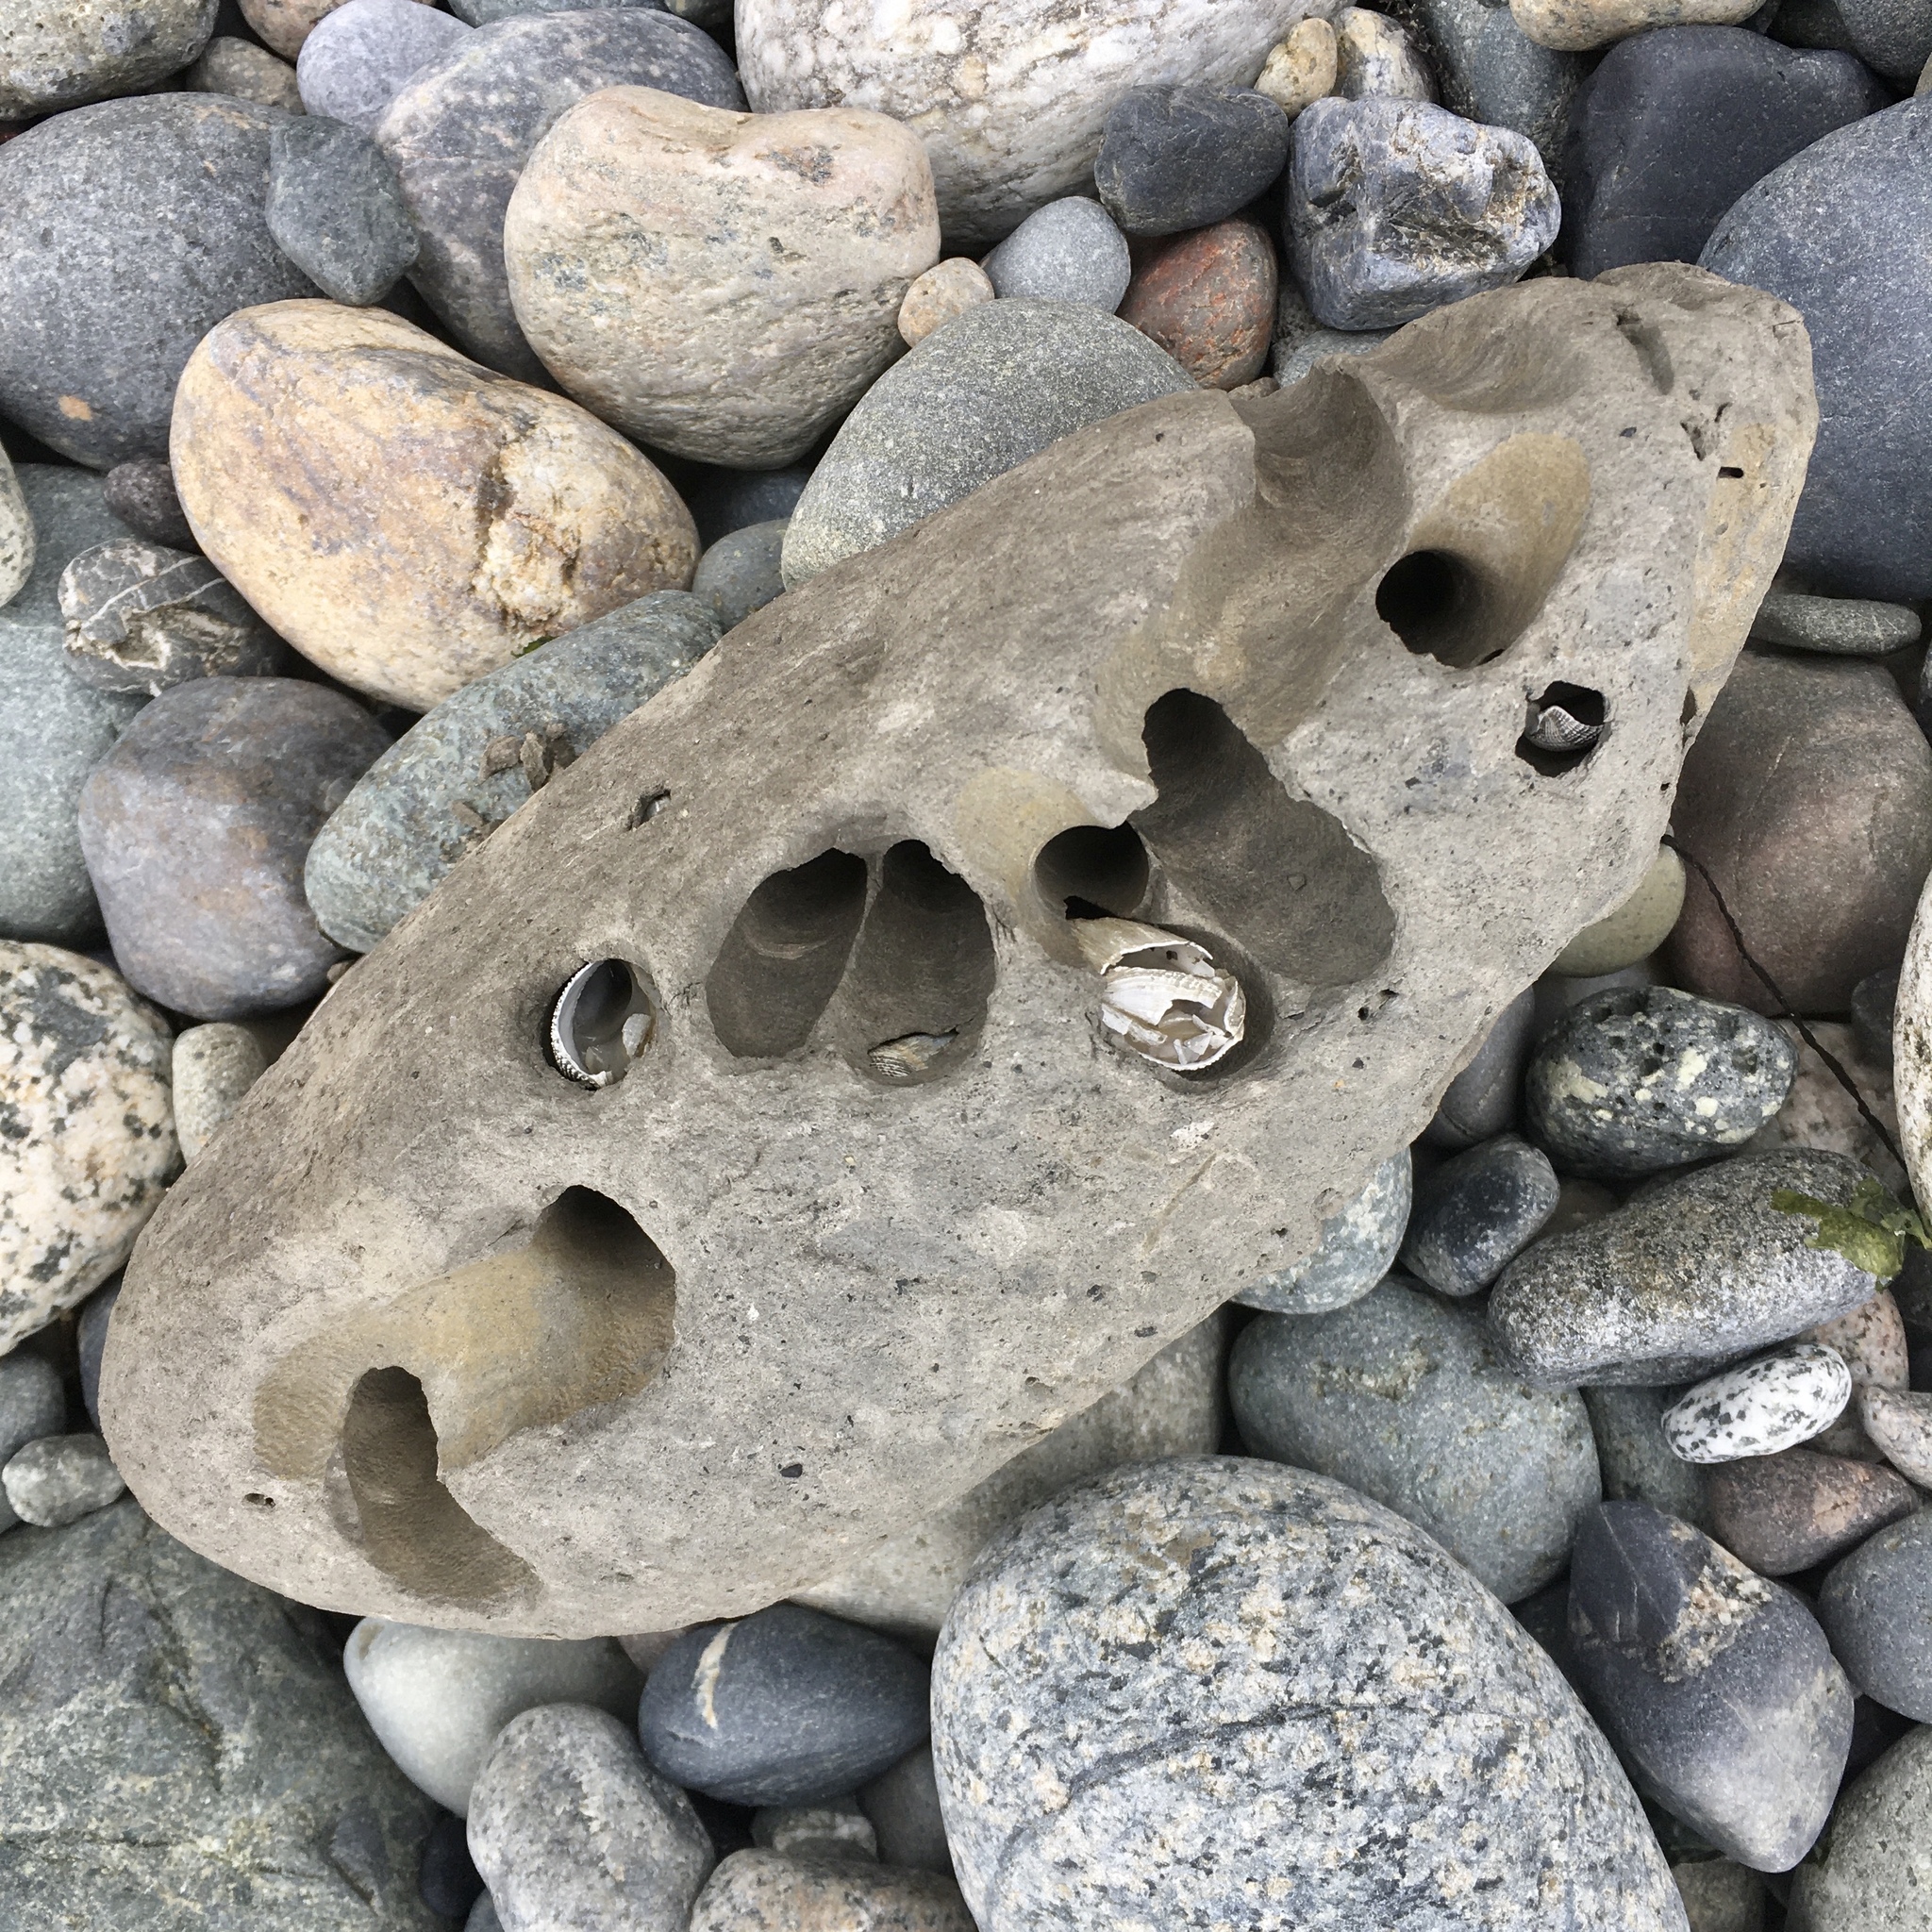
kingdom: Animalia
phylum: Mollusca
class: Bivalvia
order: Myida
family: Pholadidae
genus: Zirfaea
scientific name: Zirfaea pilsbryi
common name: Rough piddock
